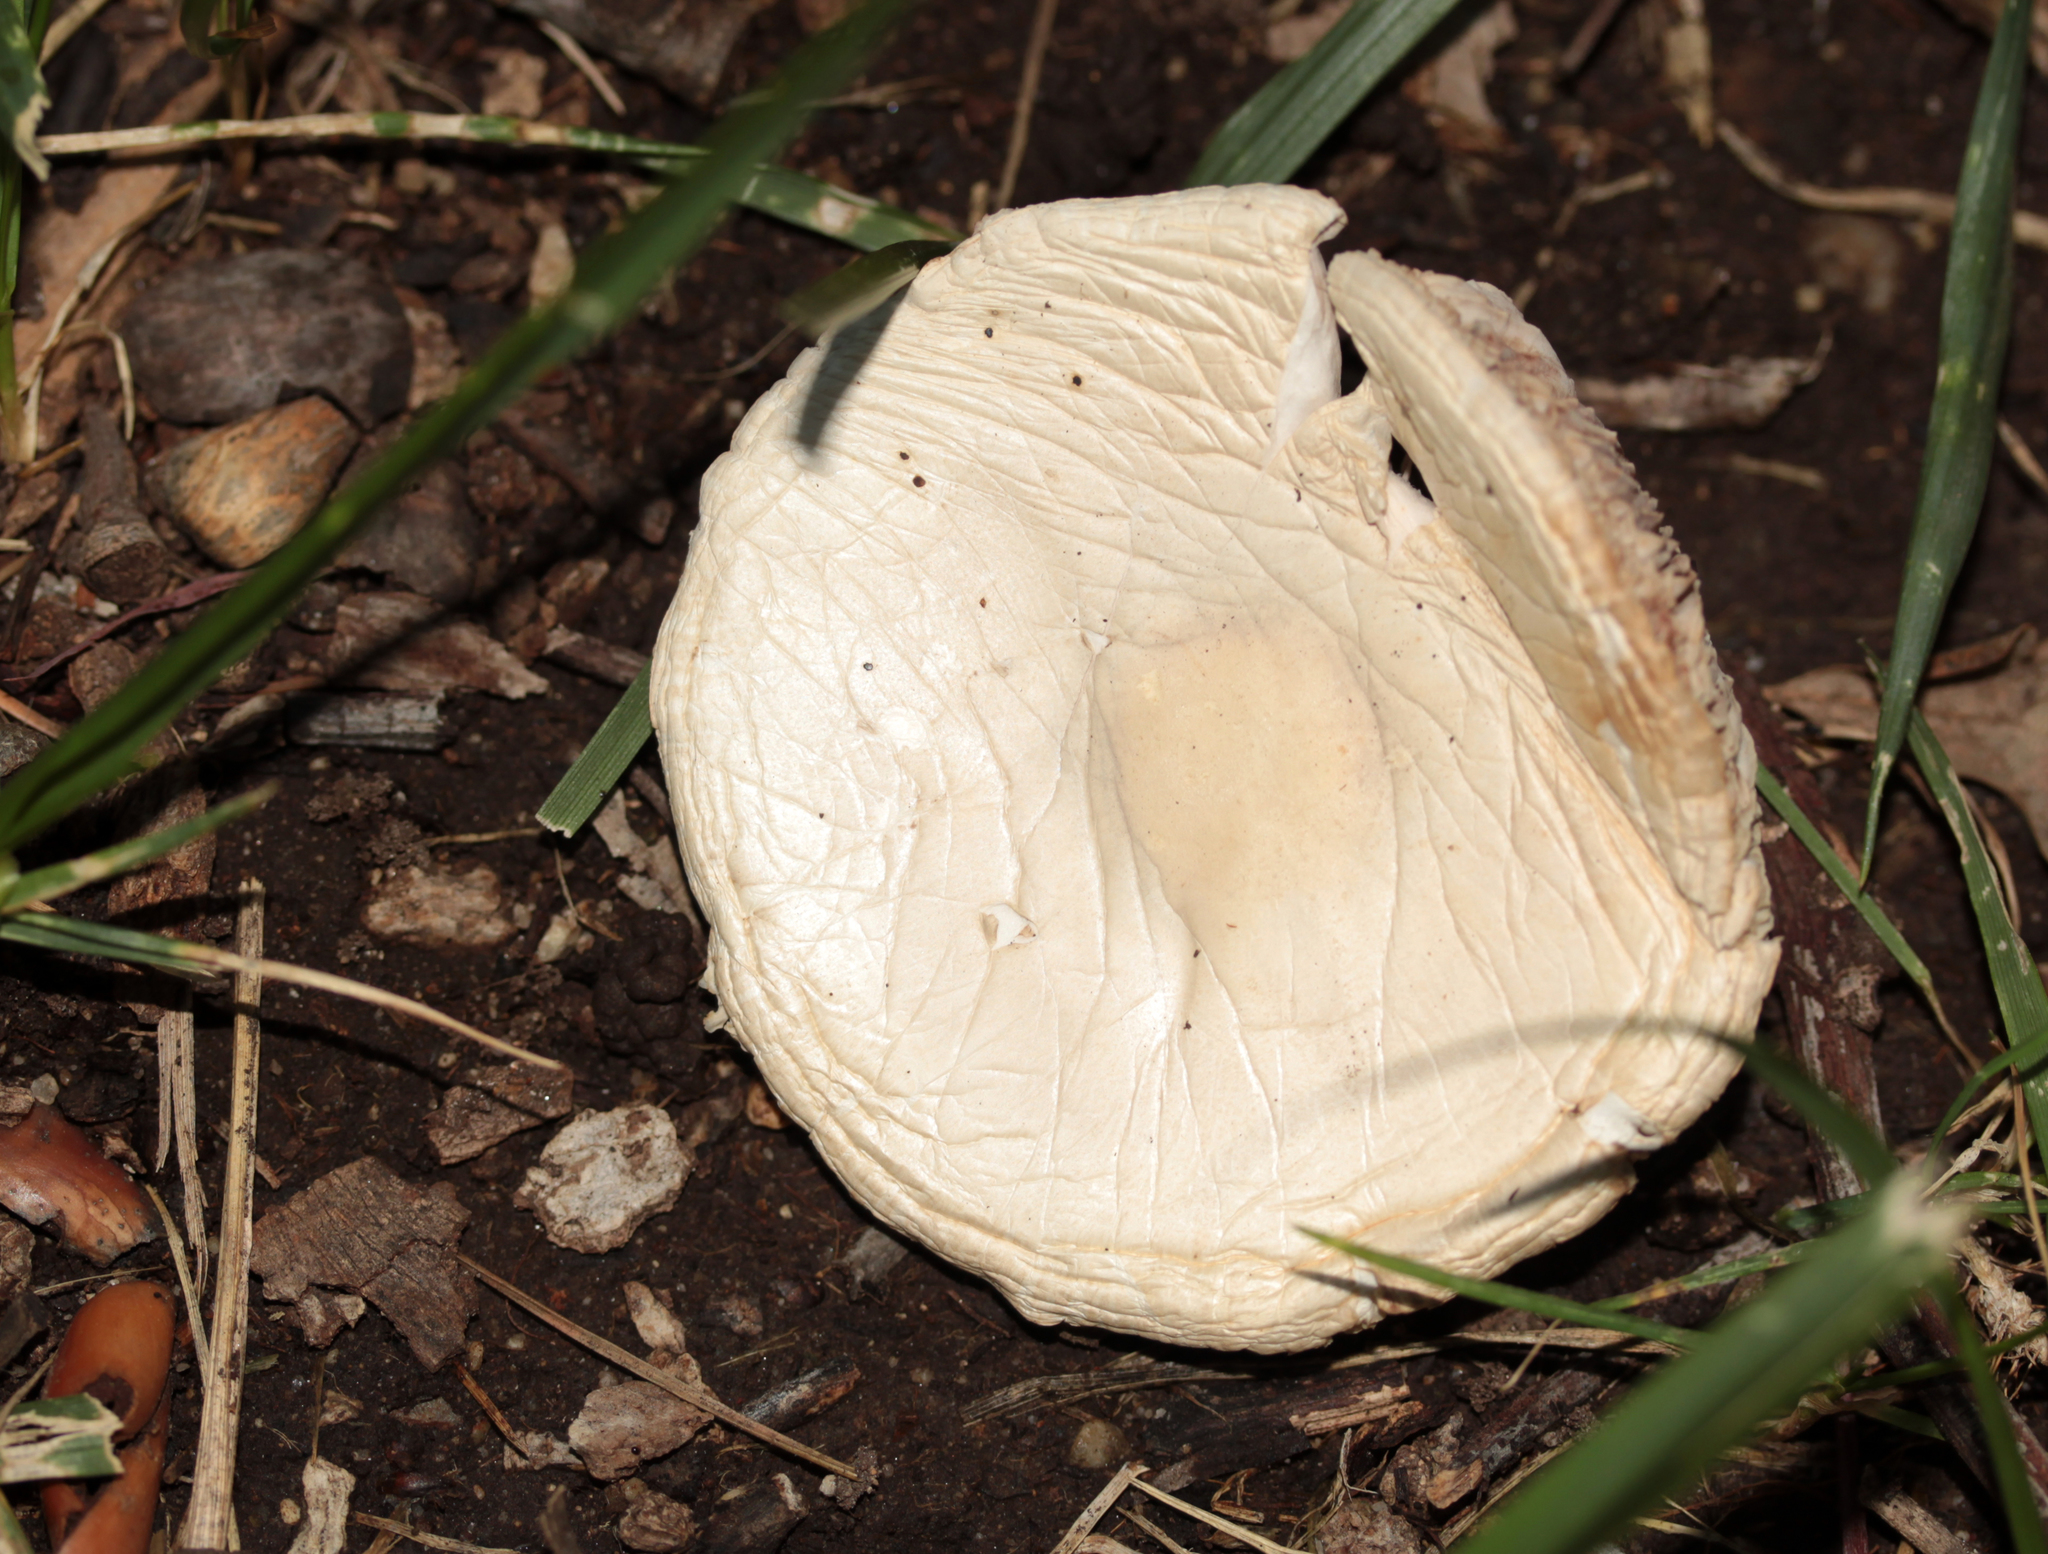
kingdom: Fungi
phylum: Basidiomycota
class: Agaricomycetes
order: Agaricales
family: Agaricaceae
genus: Leucoagaricus
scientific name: Leucoagaricus leucothites
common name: White dapperling
